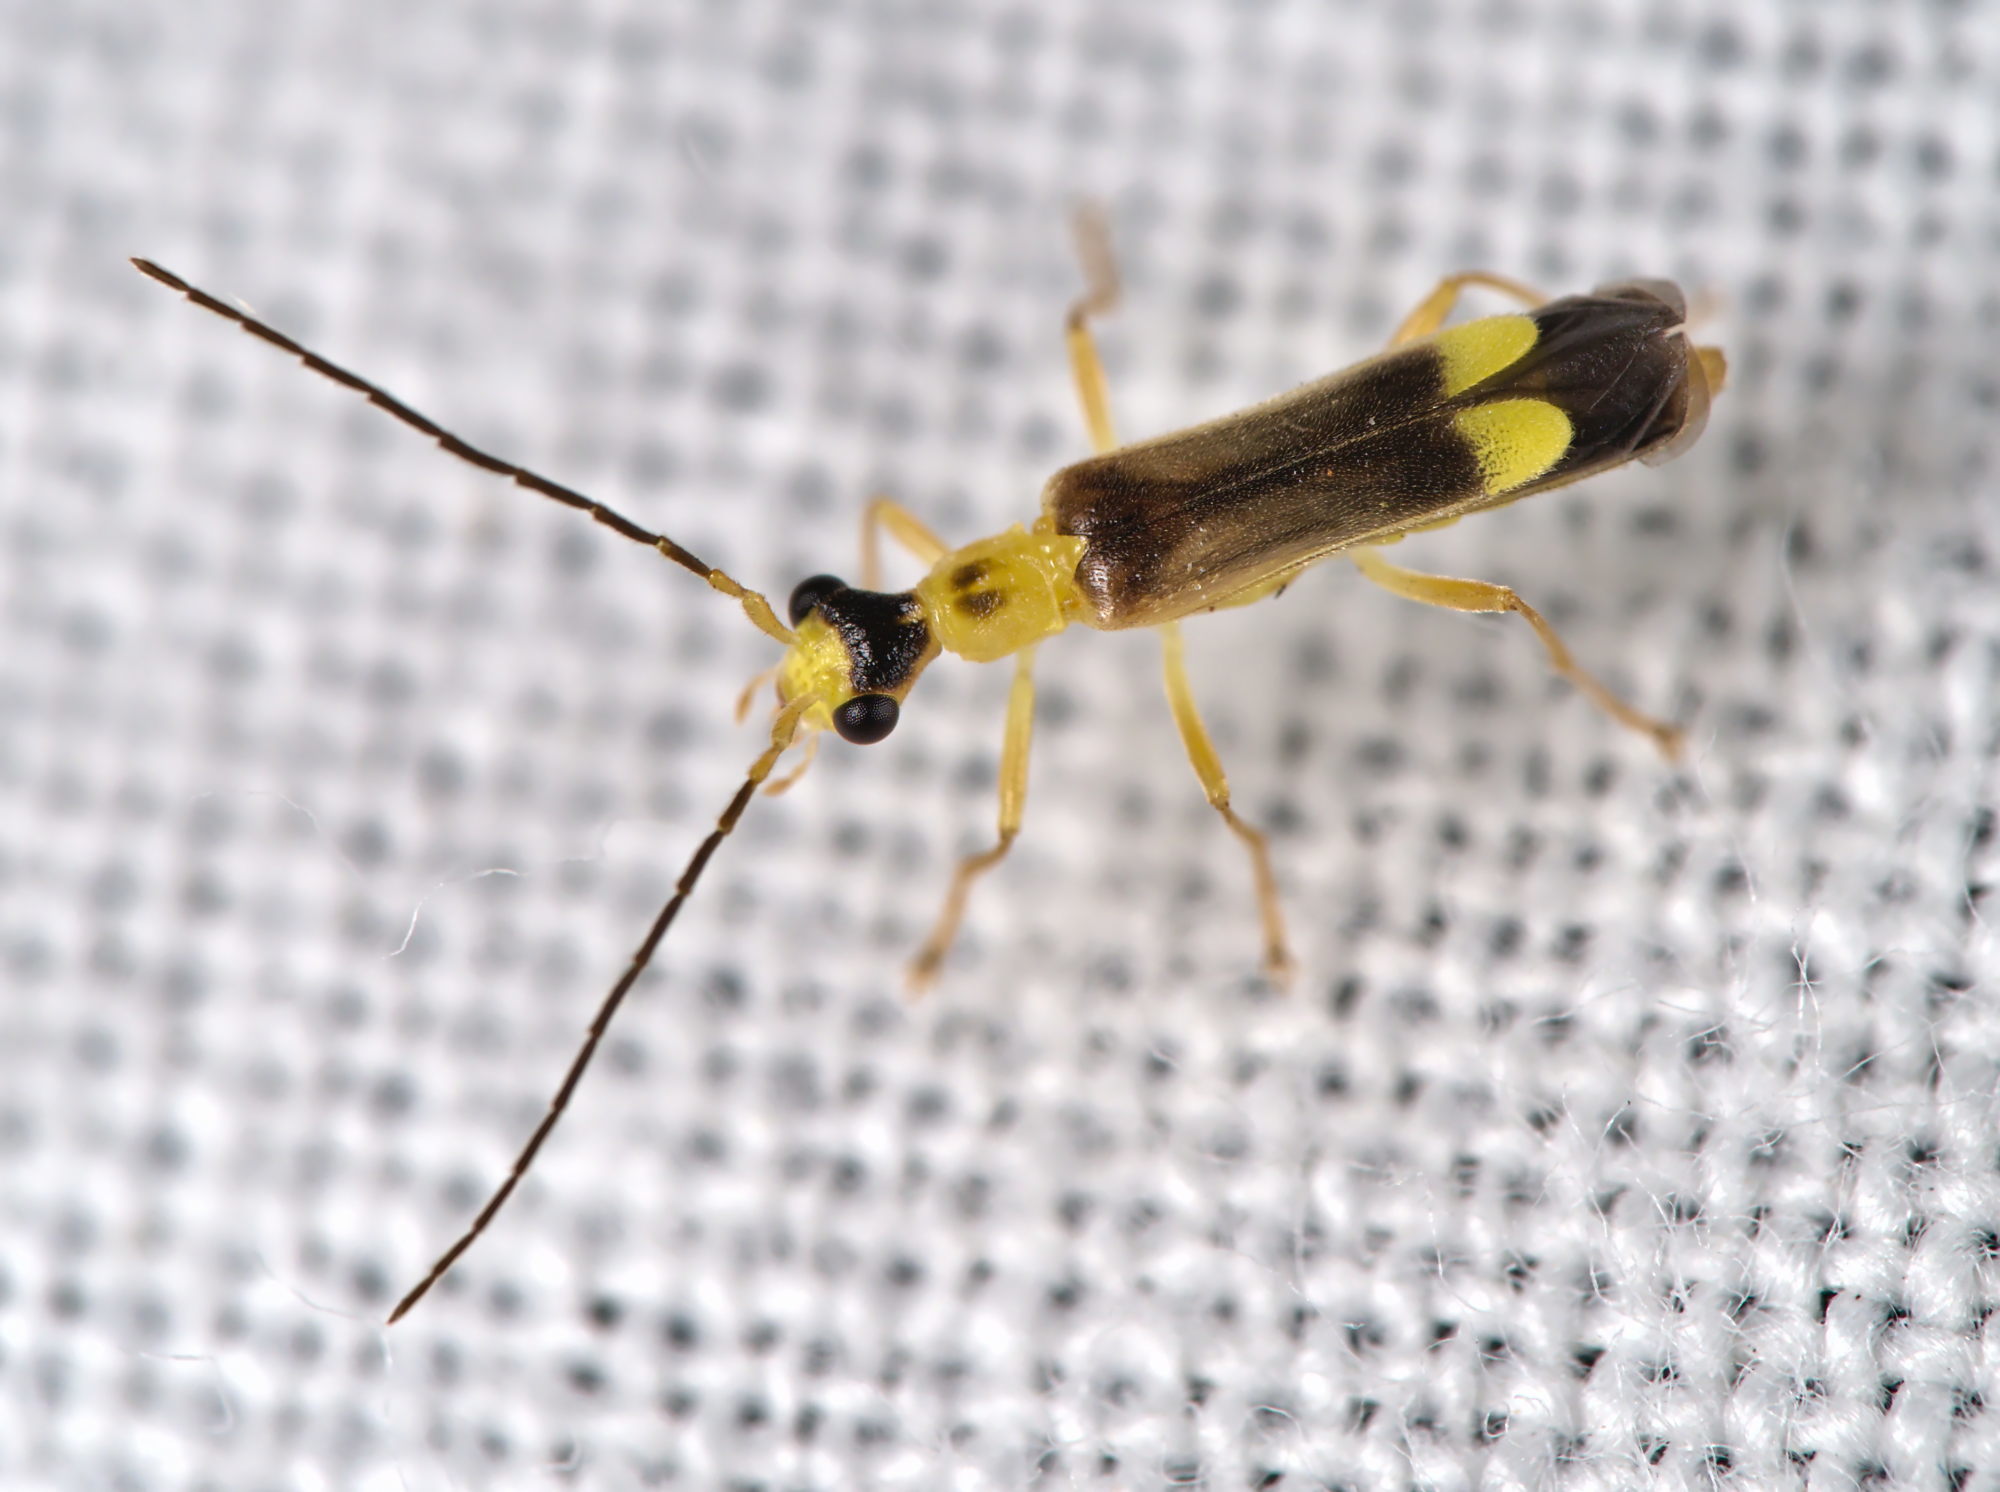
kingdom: Animalia
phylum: Arthropoda
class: Insecta
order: Coleoptera
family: Cantharidae
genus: Malthinus
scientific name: Malthinus flaveolus
